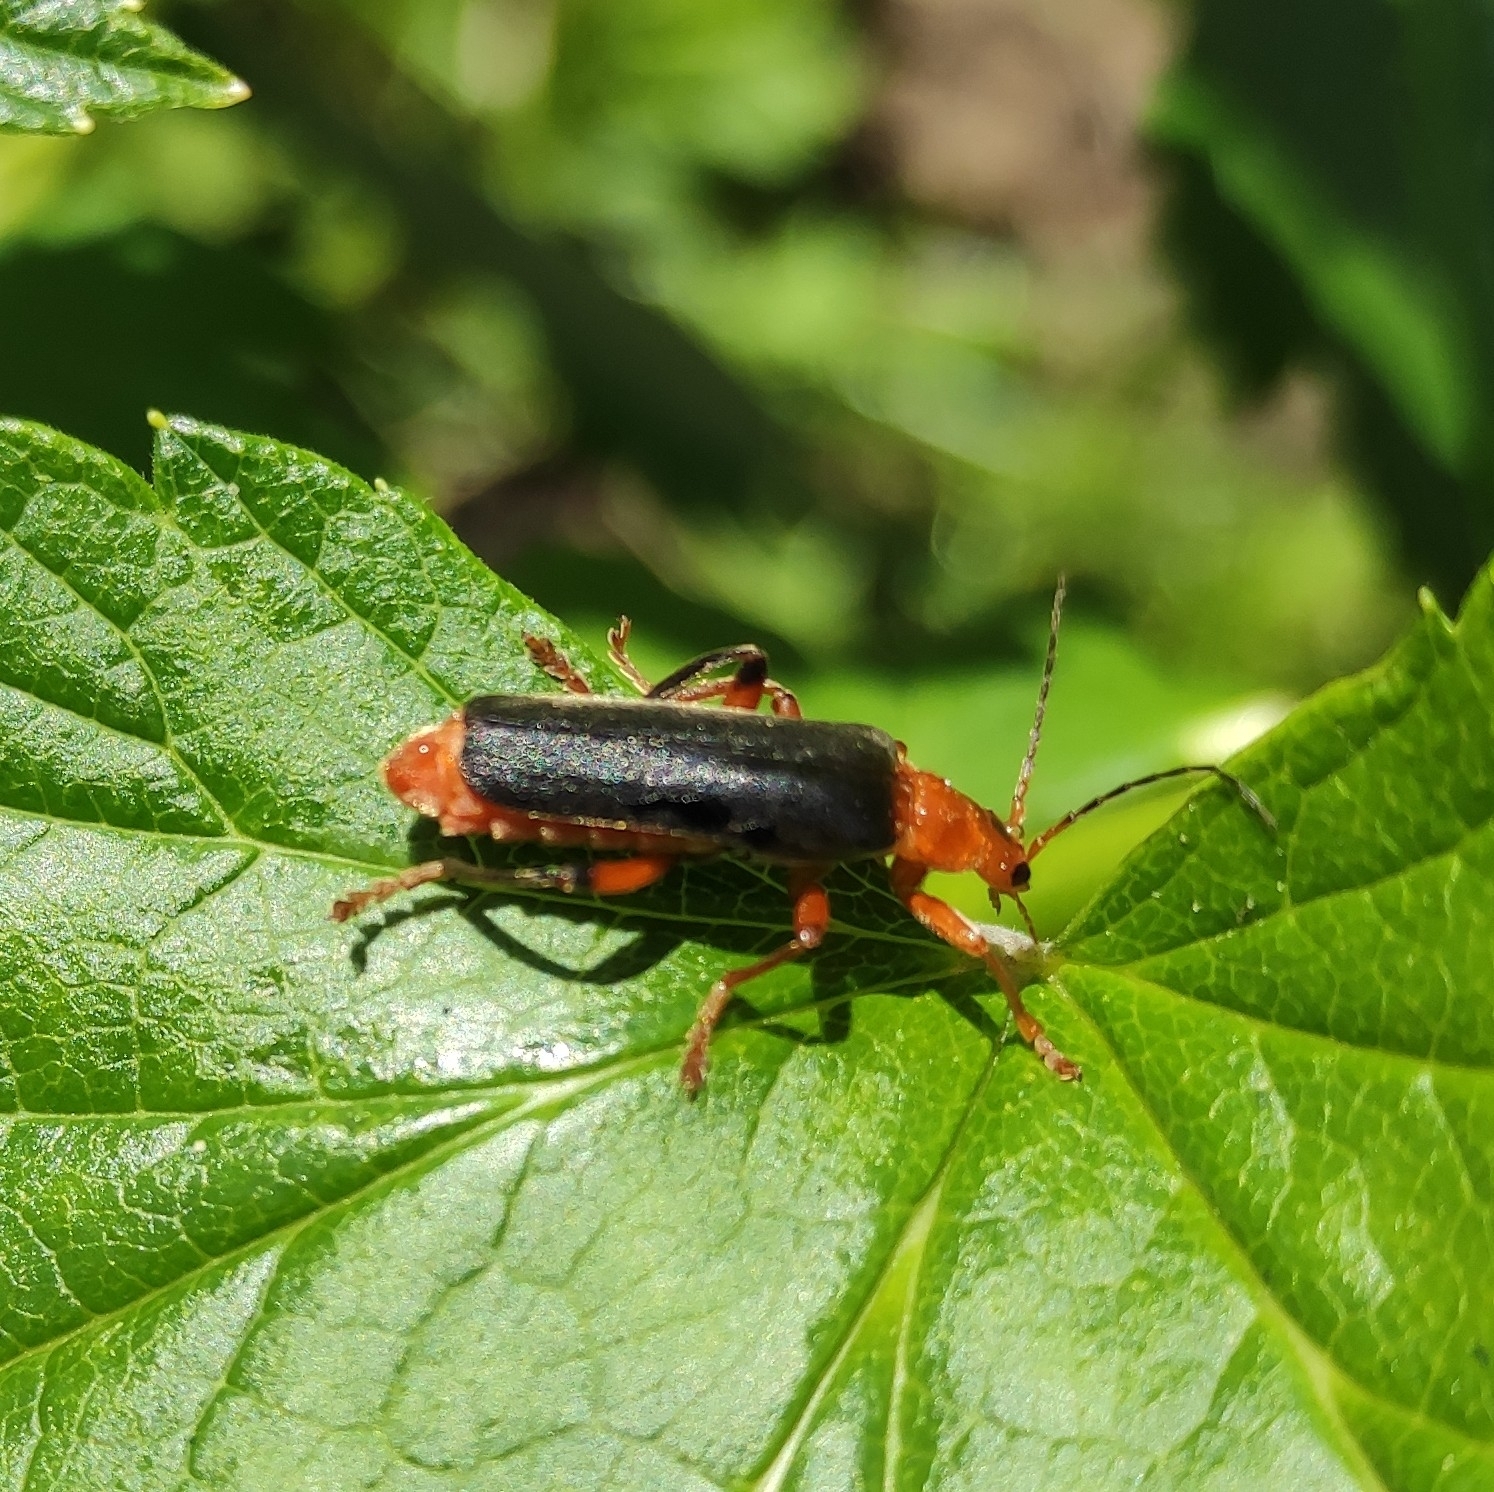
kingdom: Animalia
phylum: Arthropoda
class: Insecta
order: Coleoptera
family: Cantharidae
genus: Cantharis
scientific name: Cantharis livida
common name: Livid soldier beetle
